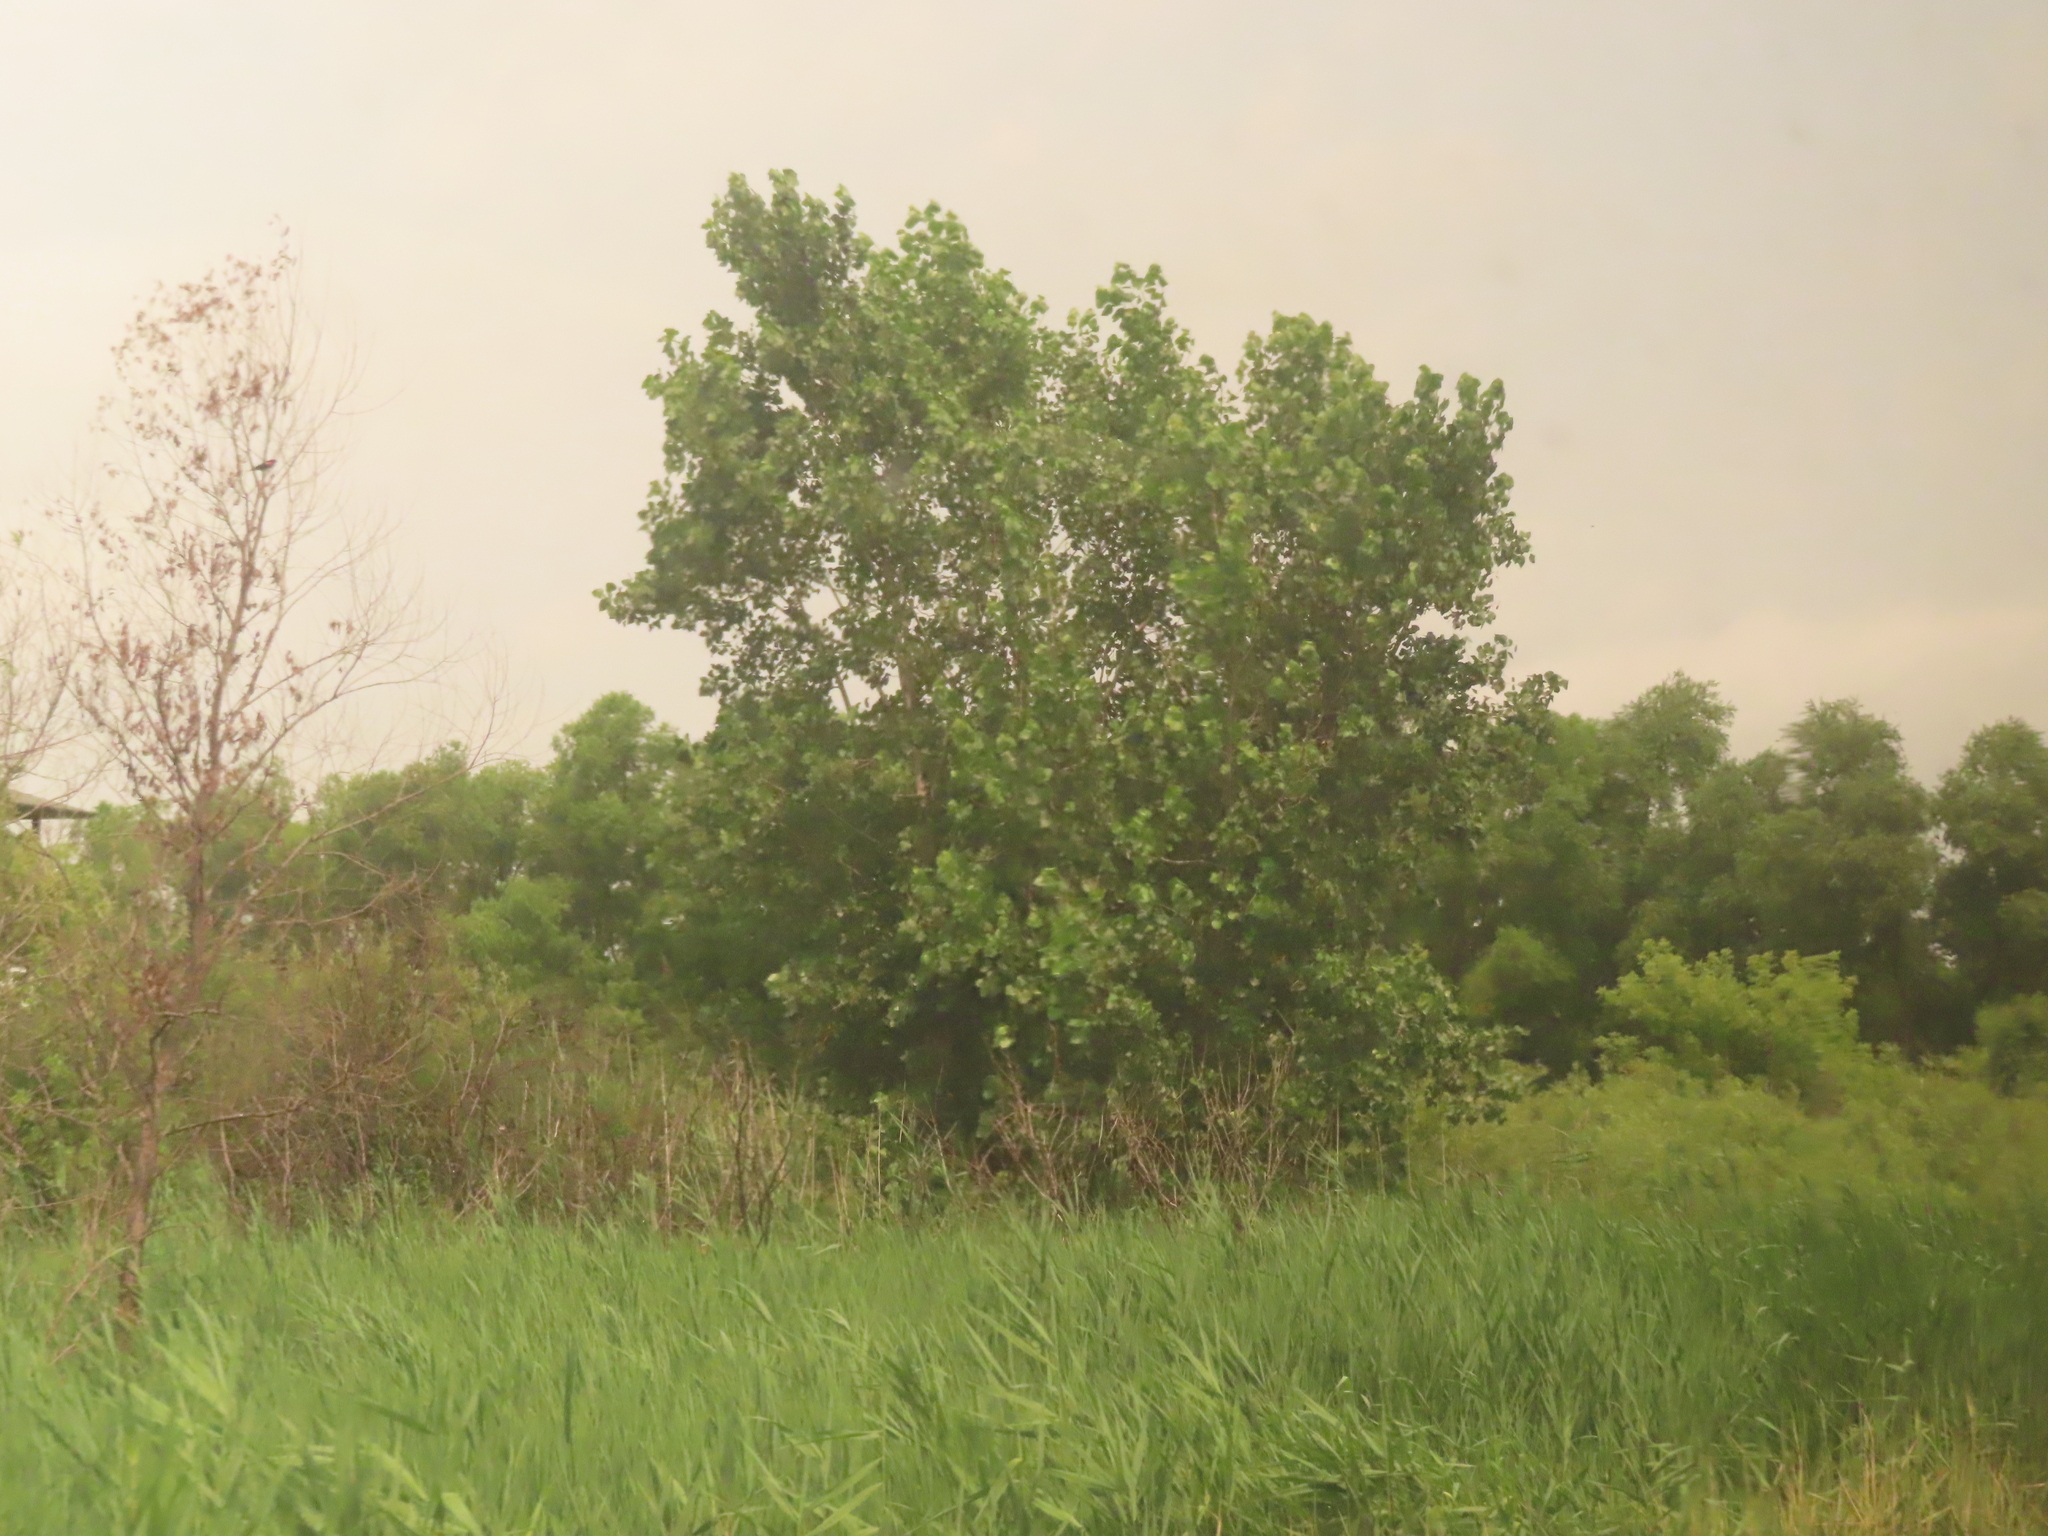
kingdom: Plantae
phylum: Tracheophyta
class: Magnoliopsida
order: Malpighiales
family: Salicaceae
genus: Populus
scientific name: Populus deltoides
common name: Eastern cottonwood
